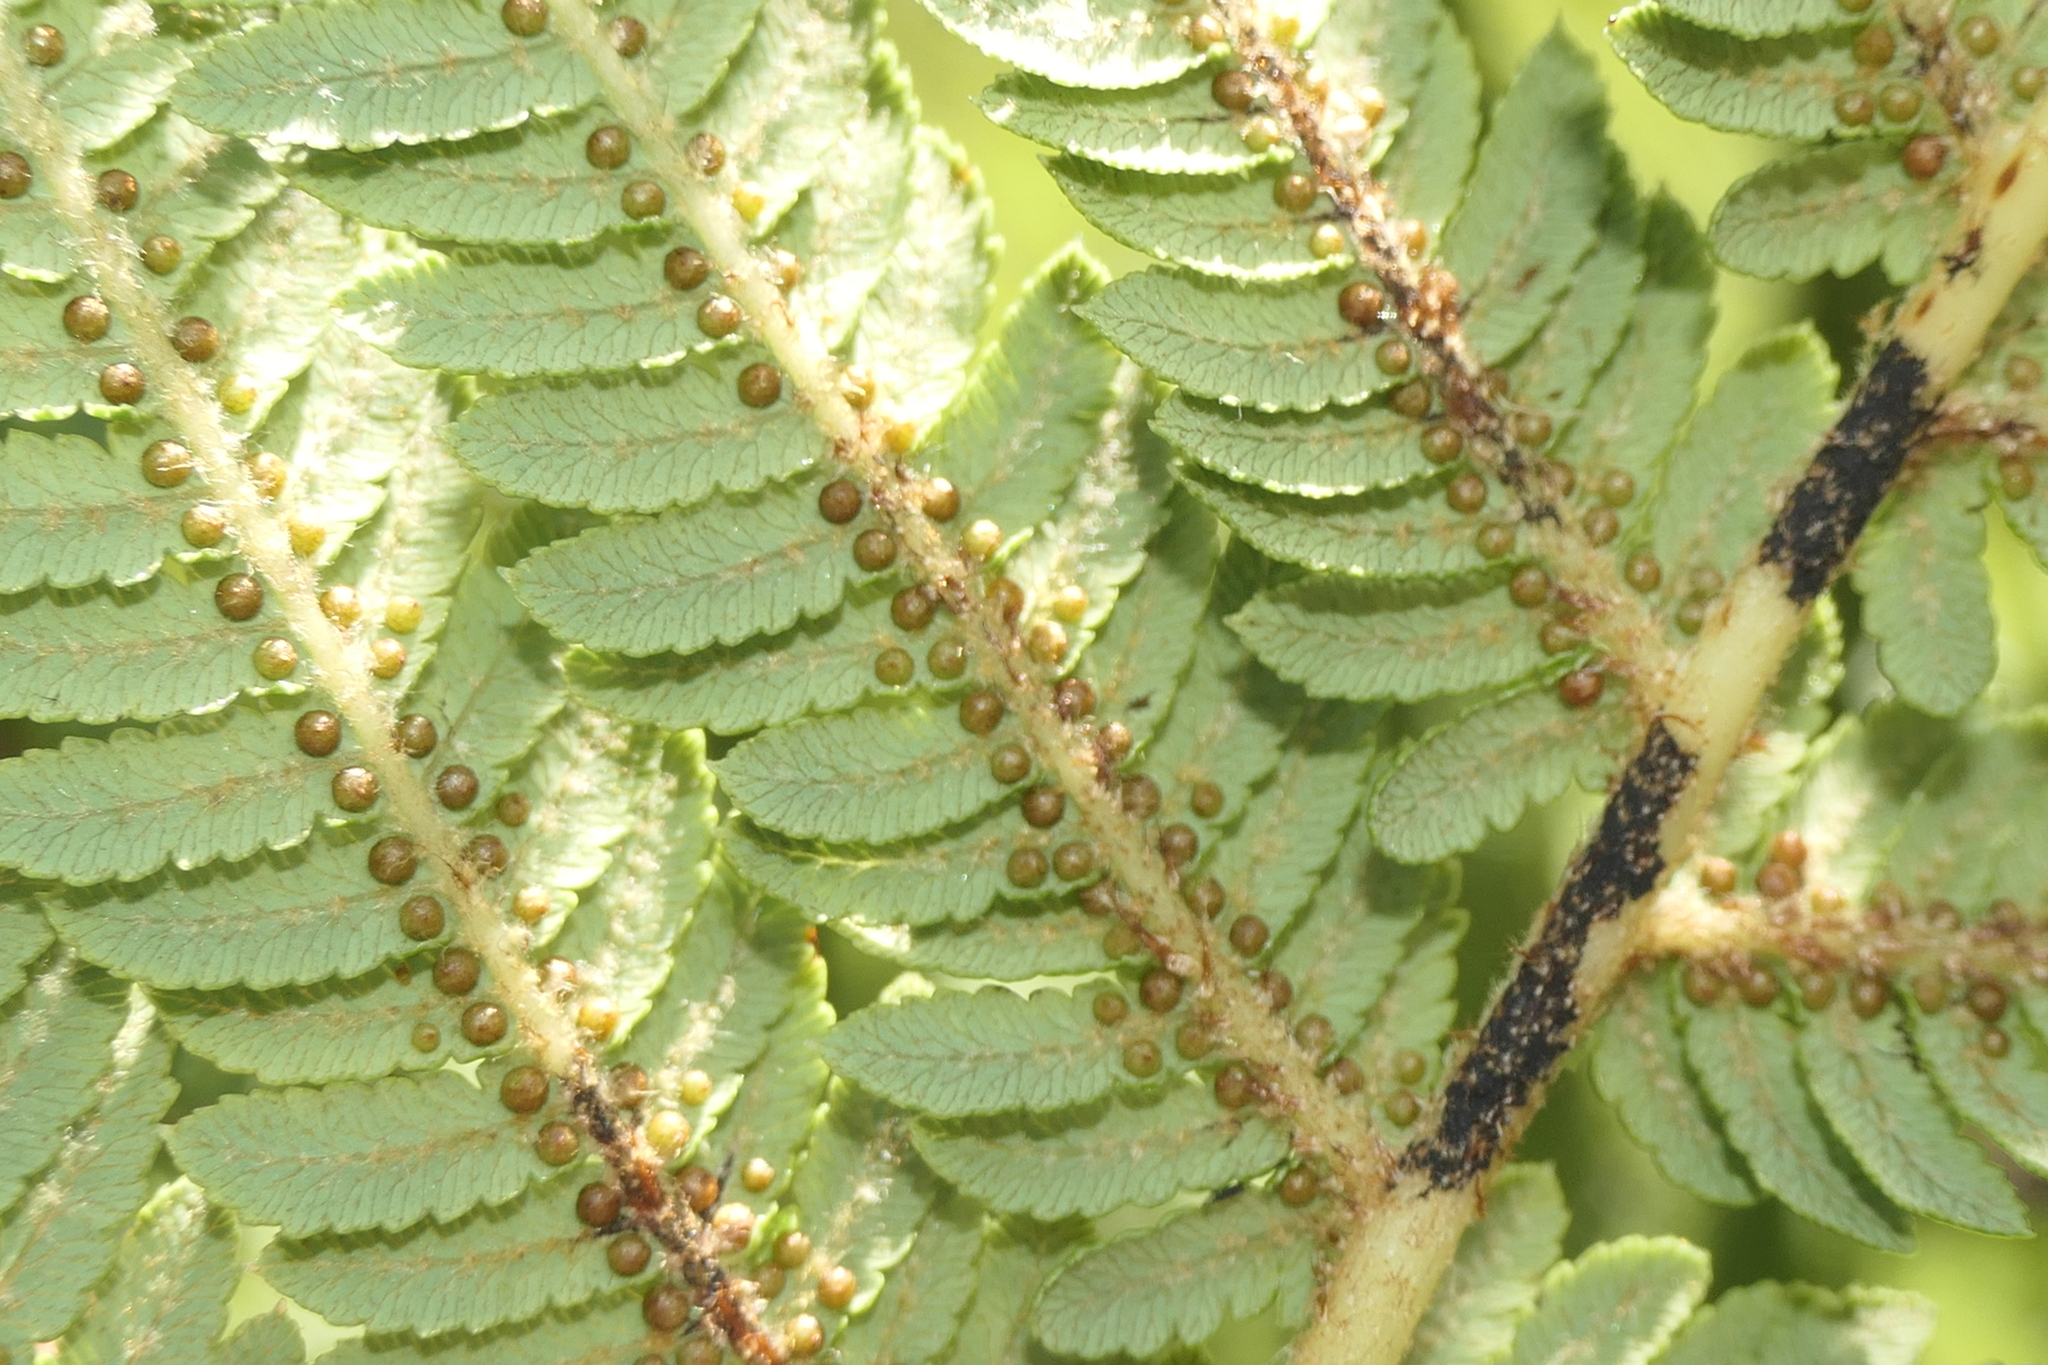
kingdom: Plantae
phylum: Tracheophyta
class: Polypodiopsida
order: Cyatheales
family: Cyatheaceae
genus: Sphaeropteris
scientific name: Sphaeropteris cooperi
